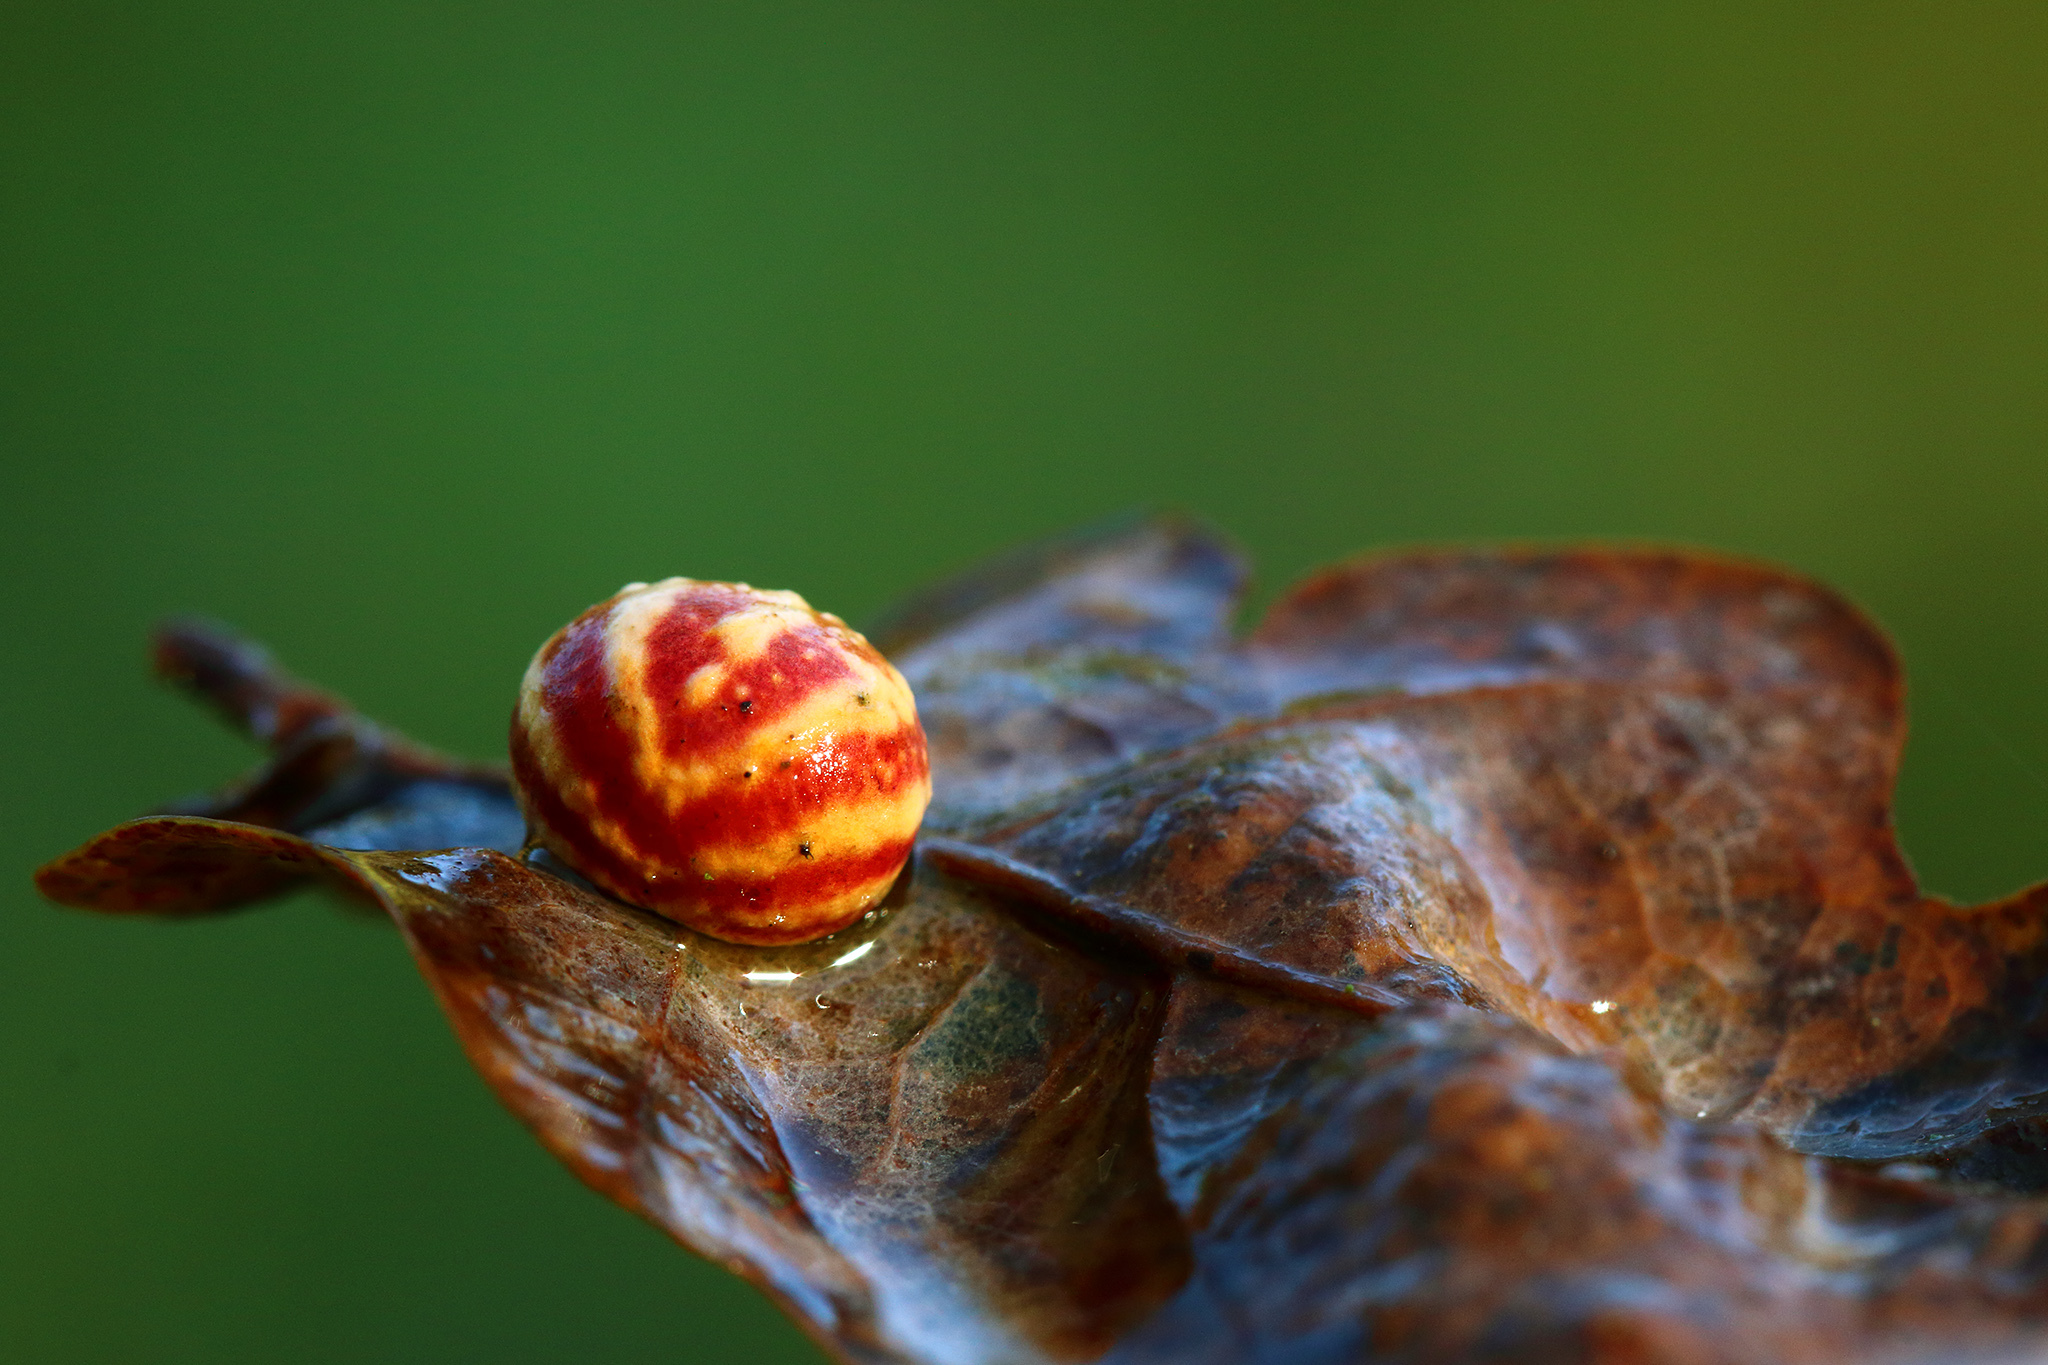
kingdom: Animalia
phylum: Arthropoda
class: Insecta
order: Hymenoptera
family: Cynipidae
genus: Cynips
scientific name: Cynips longiventris
